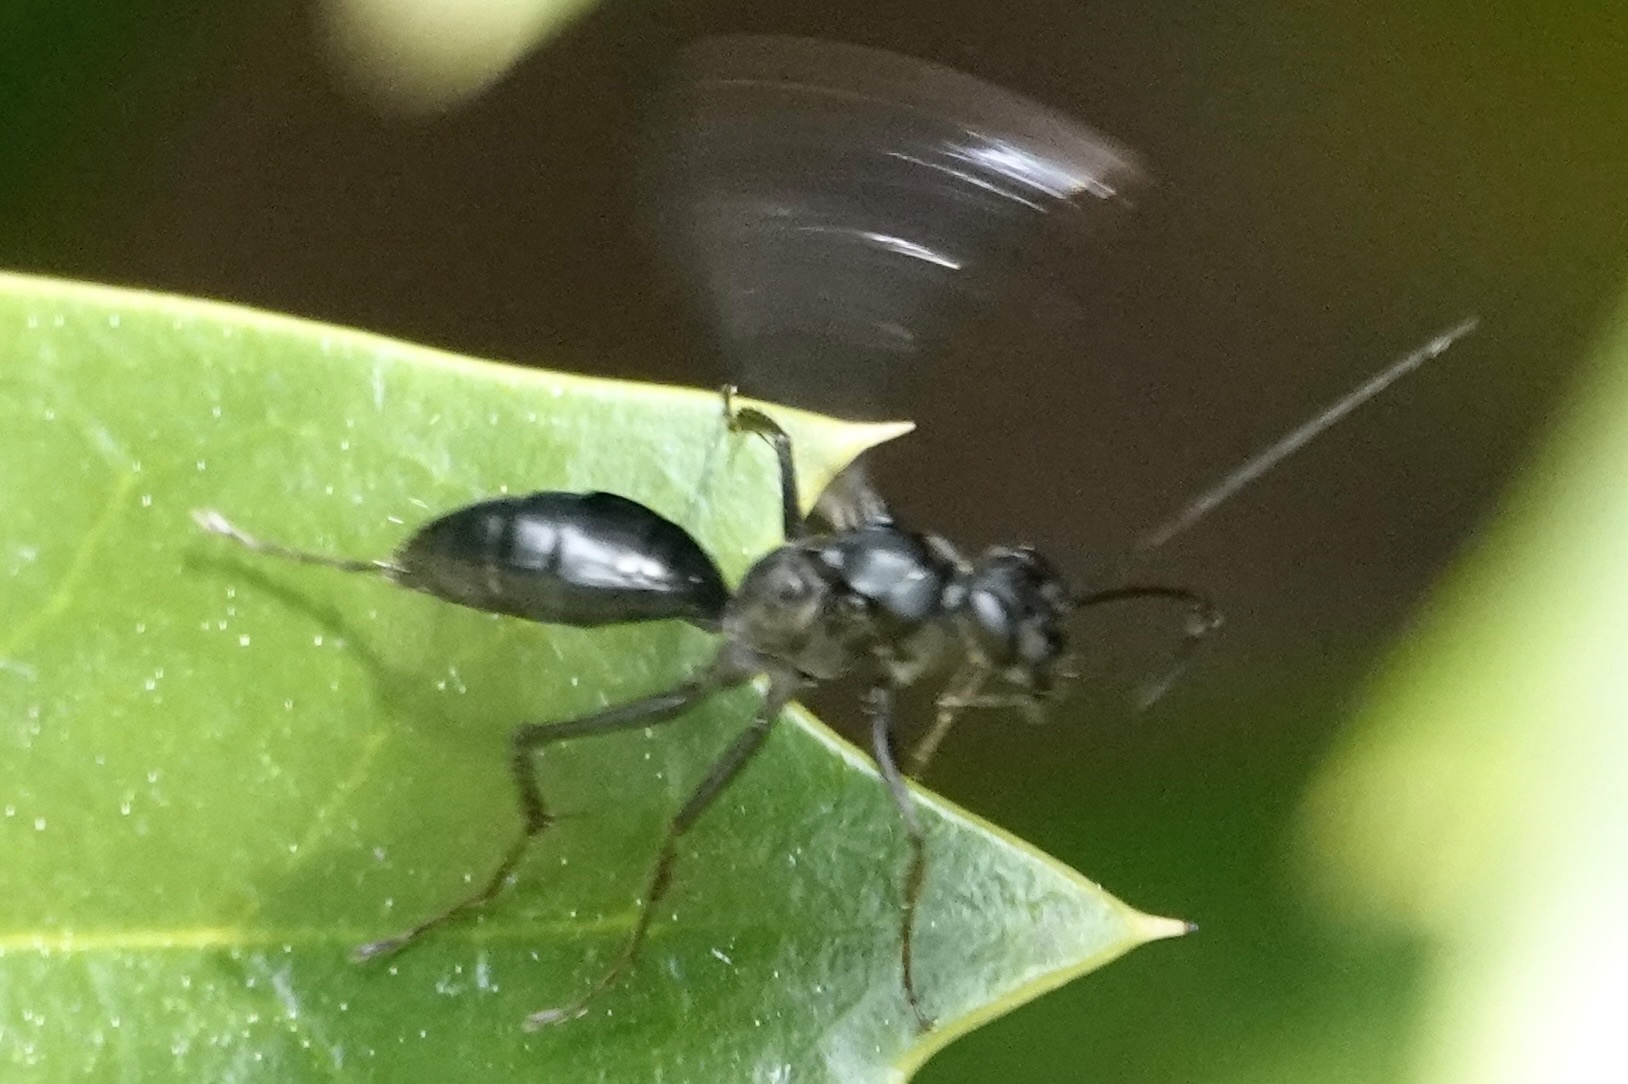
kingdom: Animalia
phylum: Arthropoda
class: Insecta
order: Hymenoptera
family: Pompilidae
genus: Priocnemis
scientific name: Priocnemis minorata
